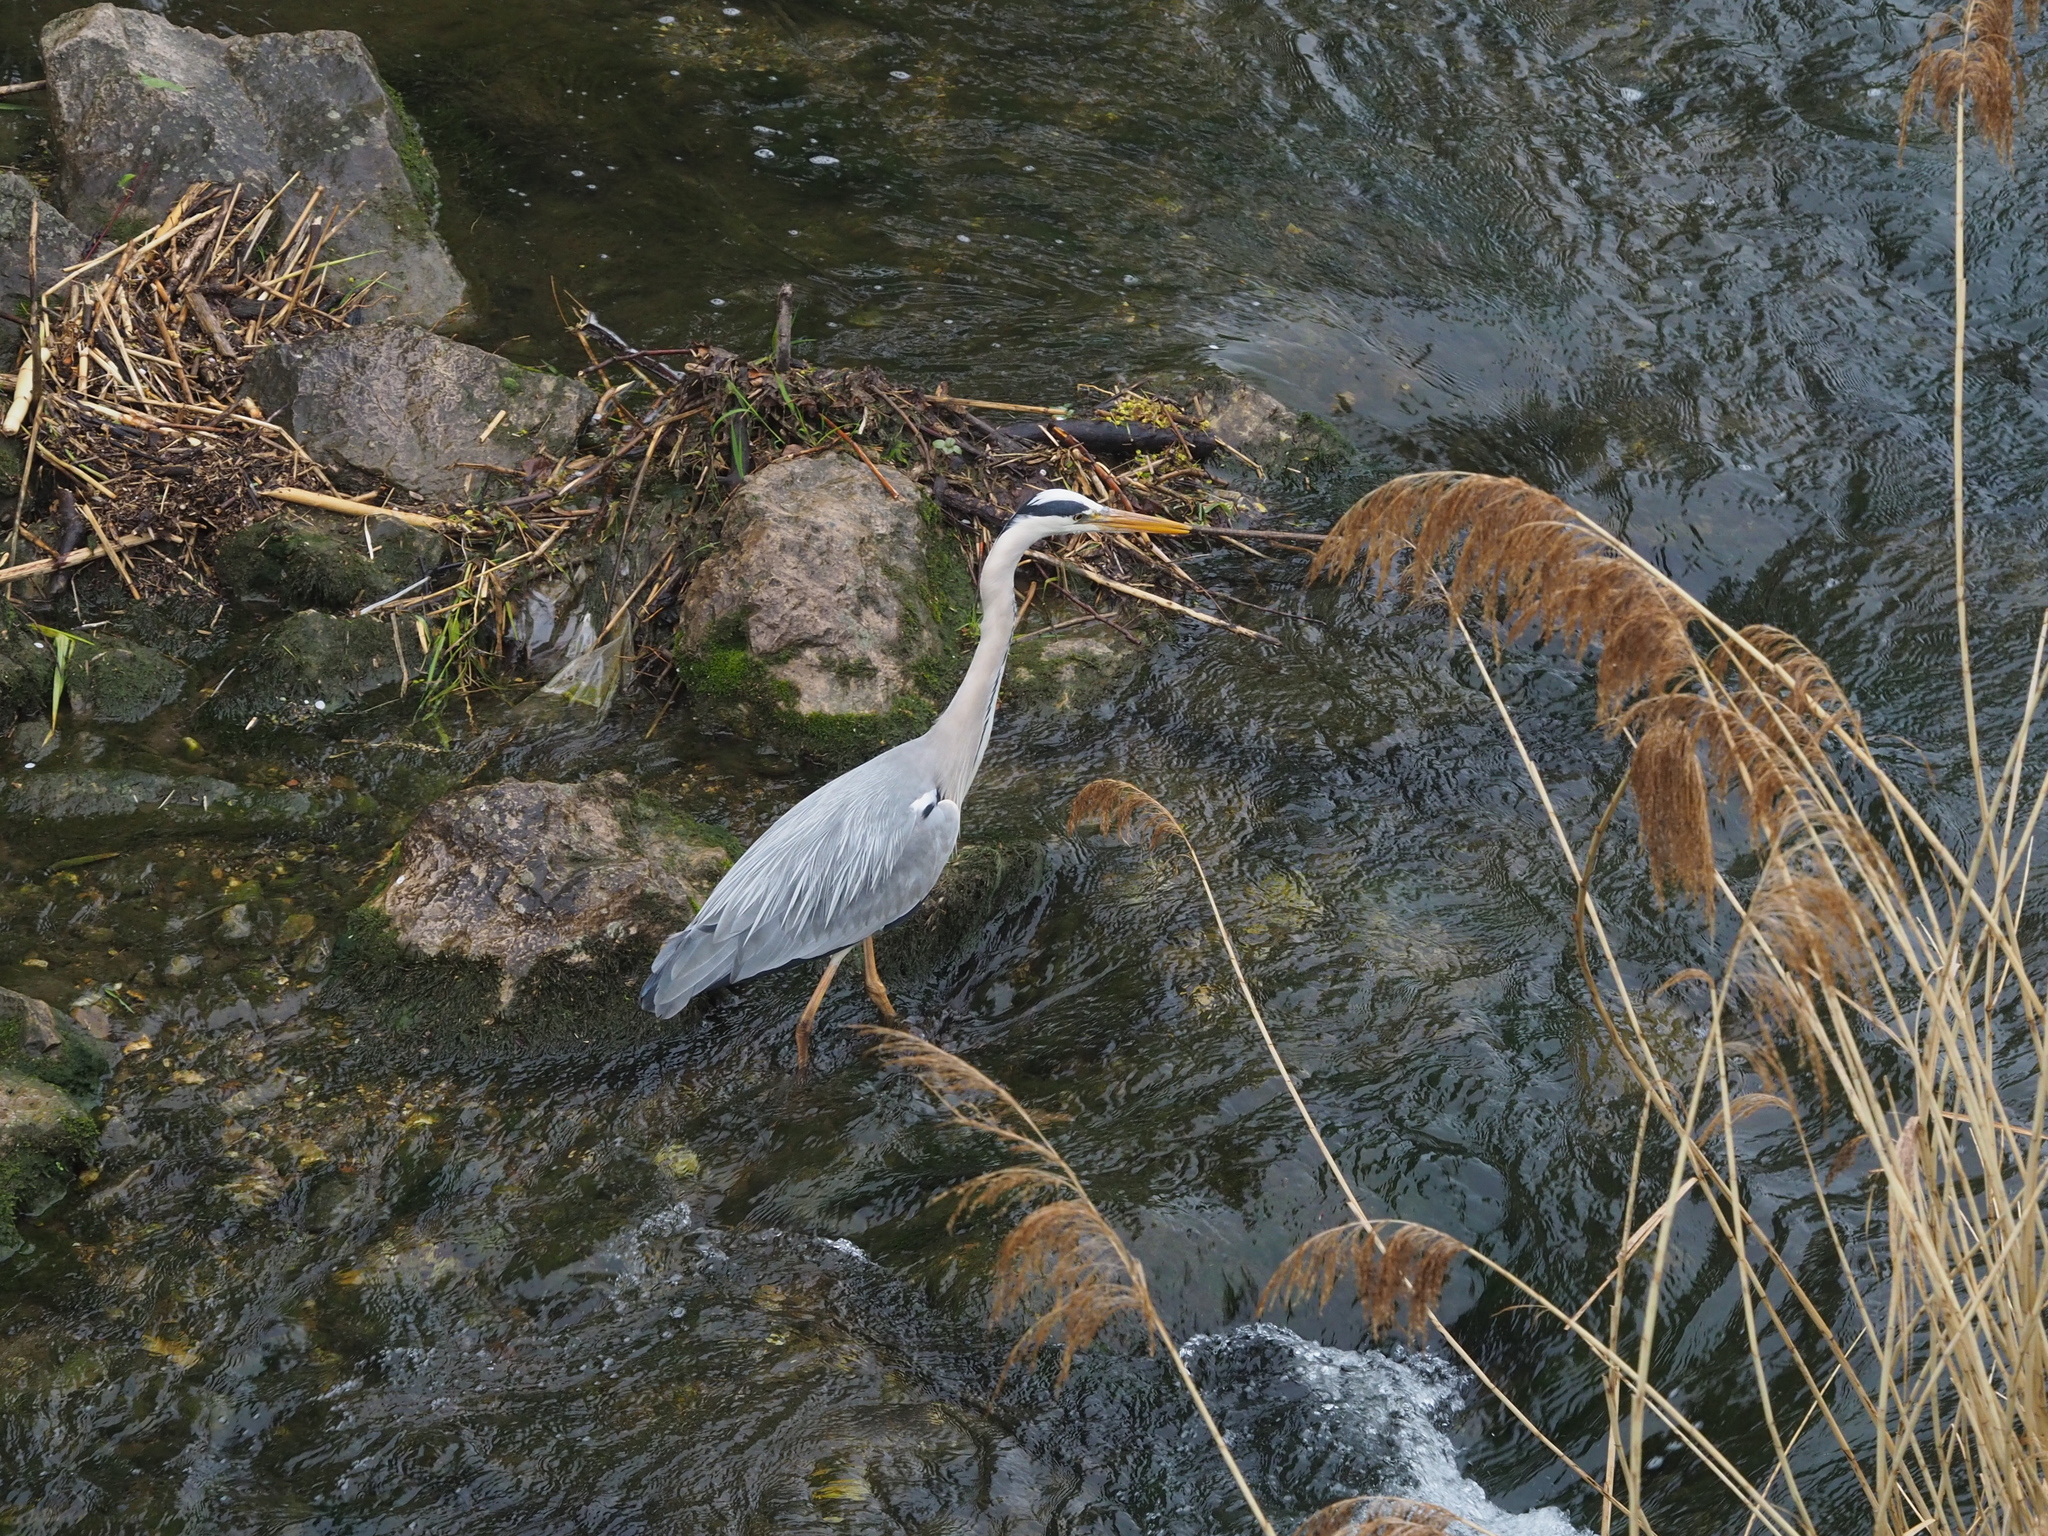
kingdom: Animalia
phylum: Chordata
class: Aves
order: Pelecaniformes
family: Ardeidae
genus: Ardea
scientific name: Ardea cinerea
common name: Grey heron
